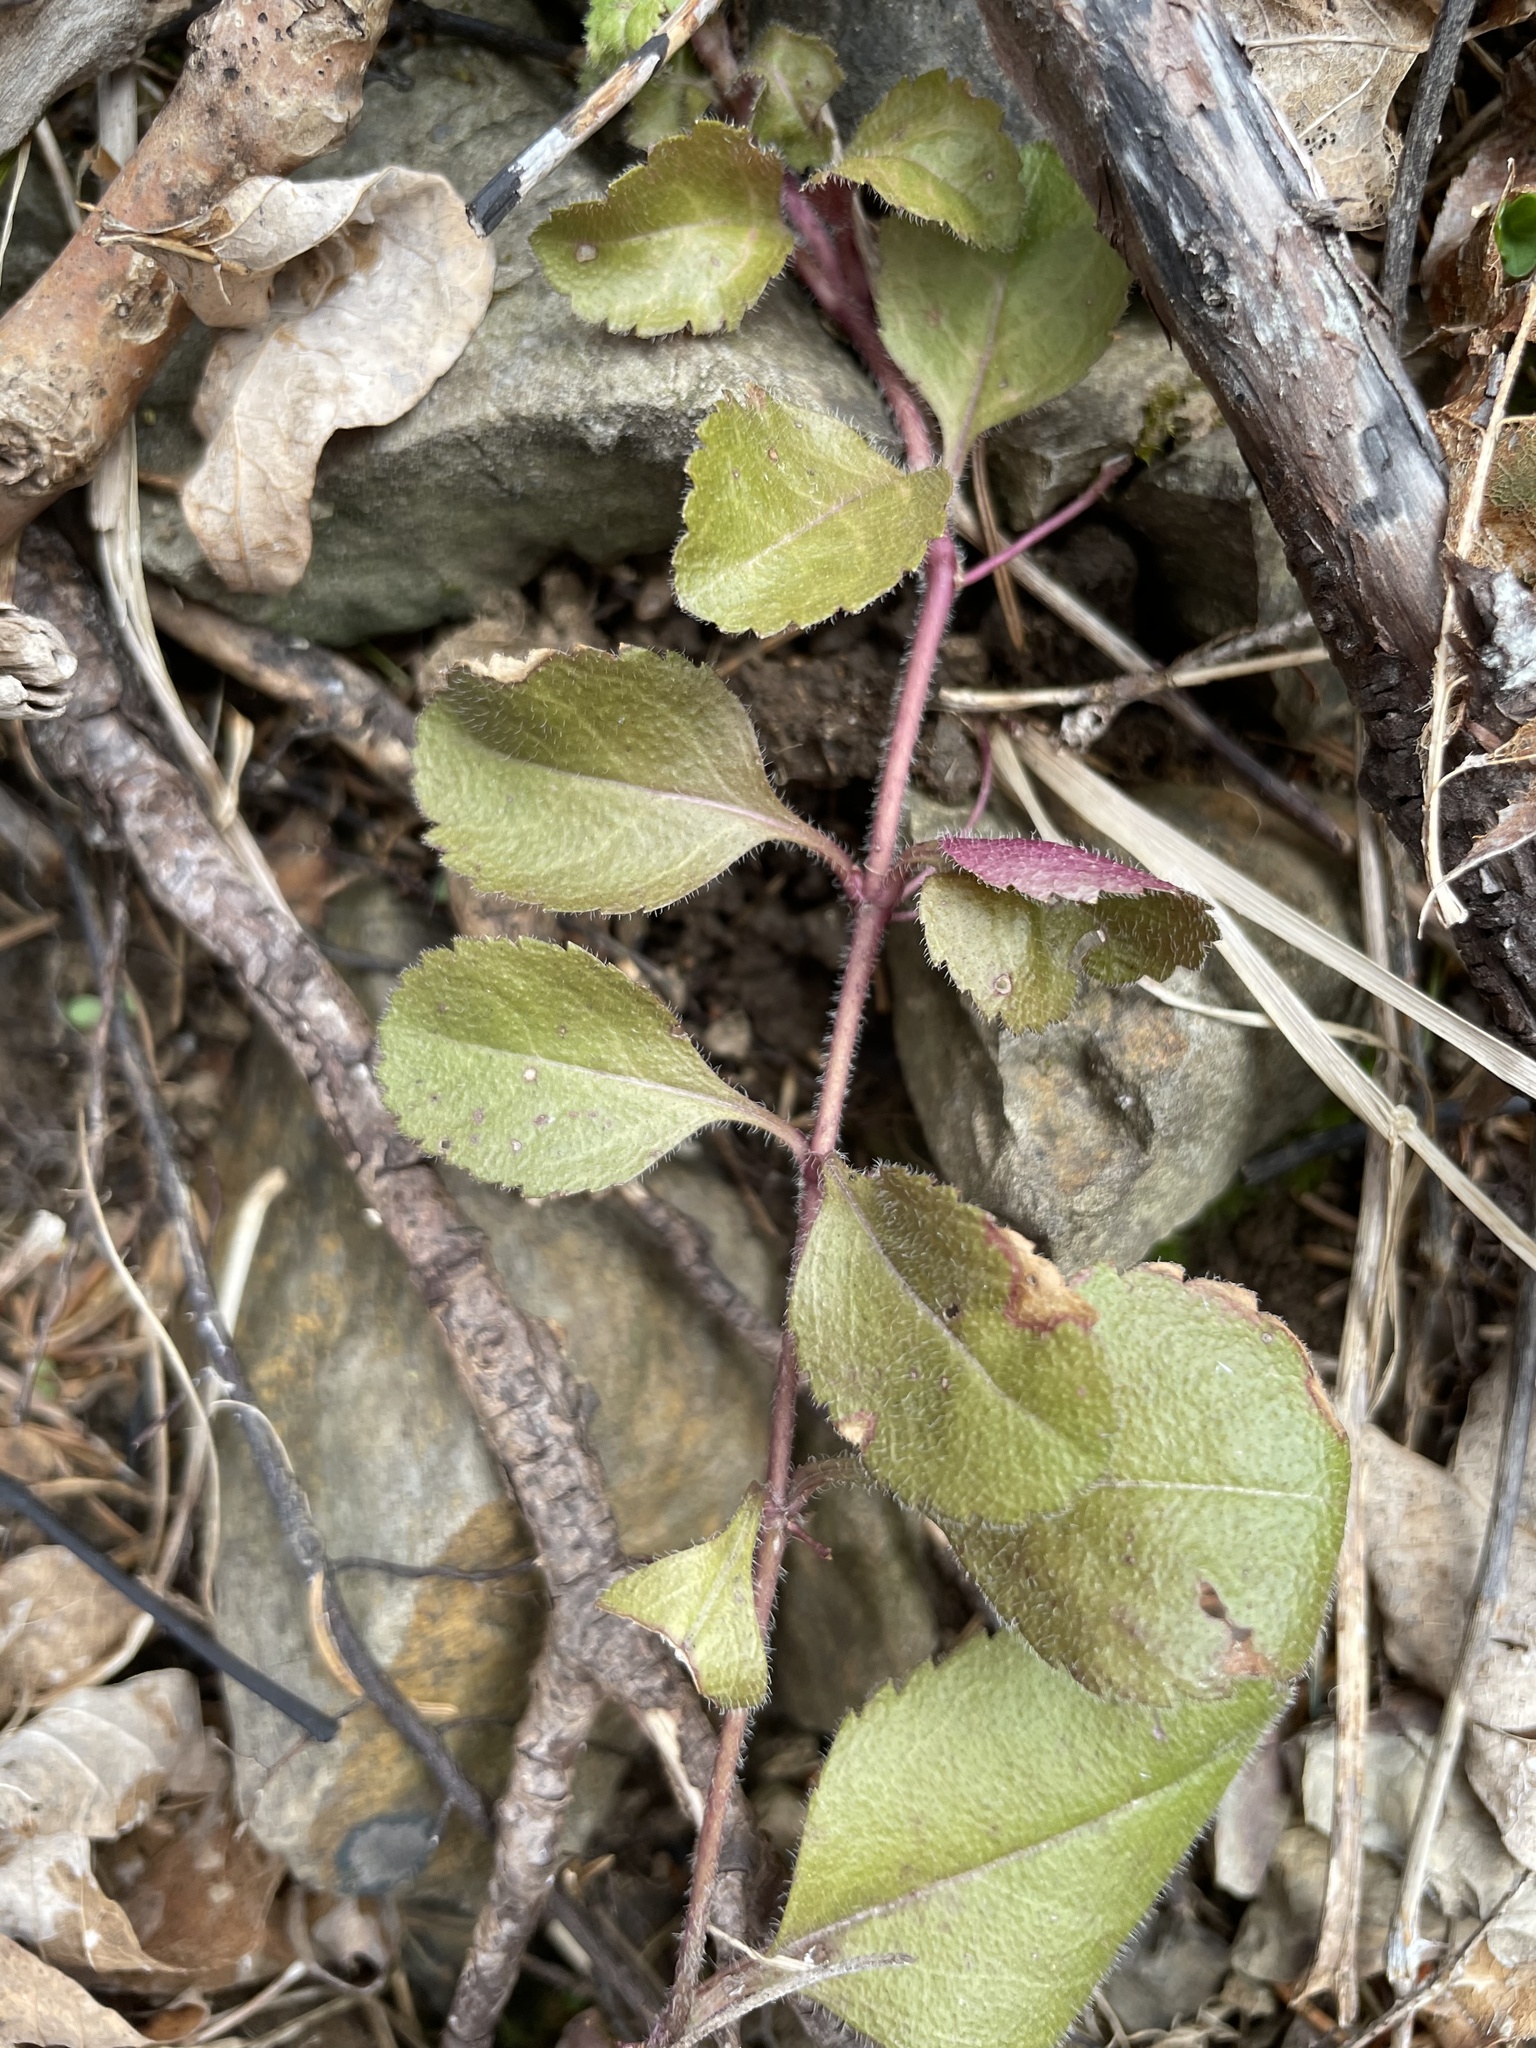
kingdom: Plantae
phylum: Tracheophyta
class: Magnoliopsida
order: Lamiales
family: Plantaginaceae
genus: Veronica
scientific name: Veronica officinalis
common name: Common speedwell
